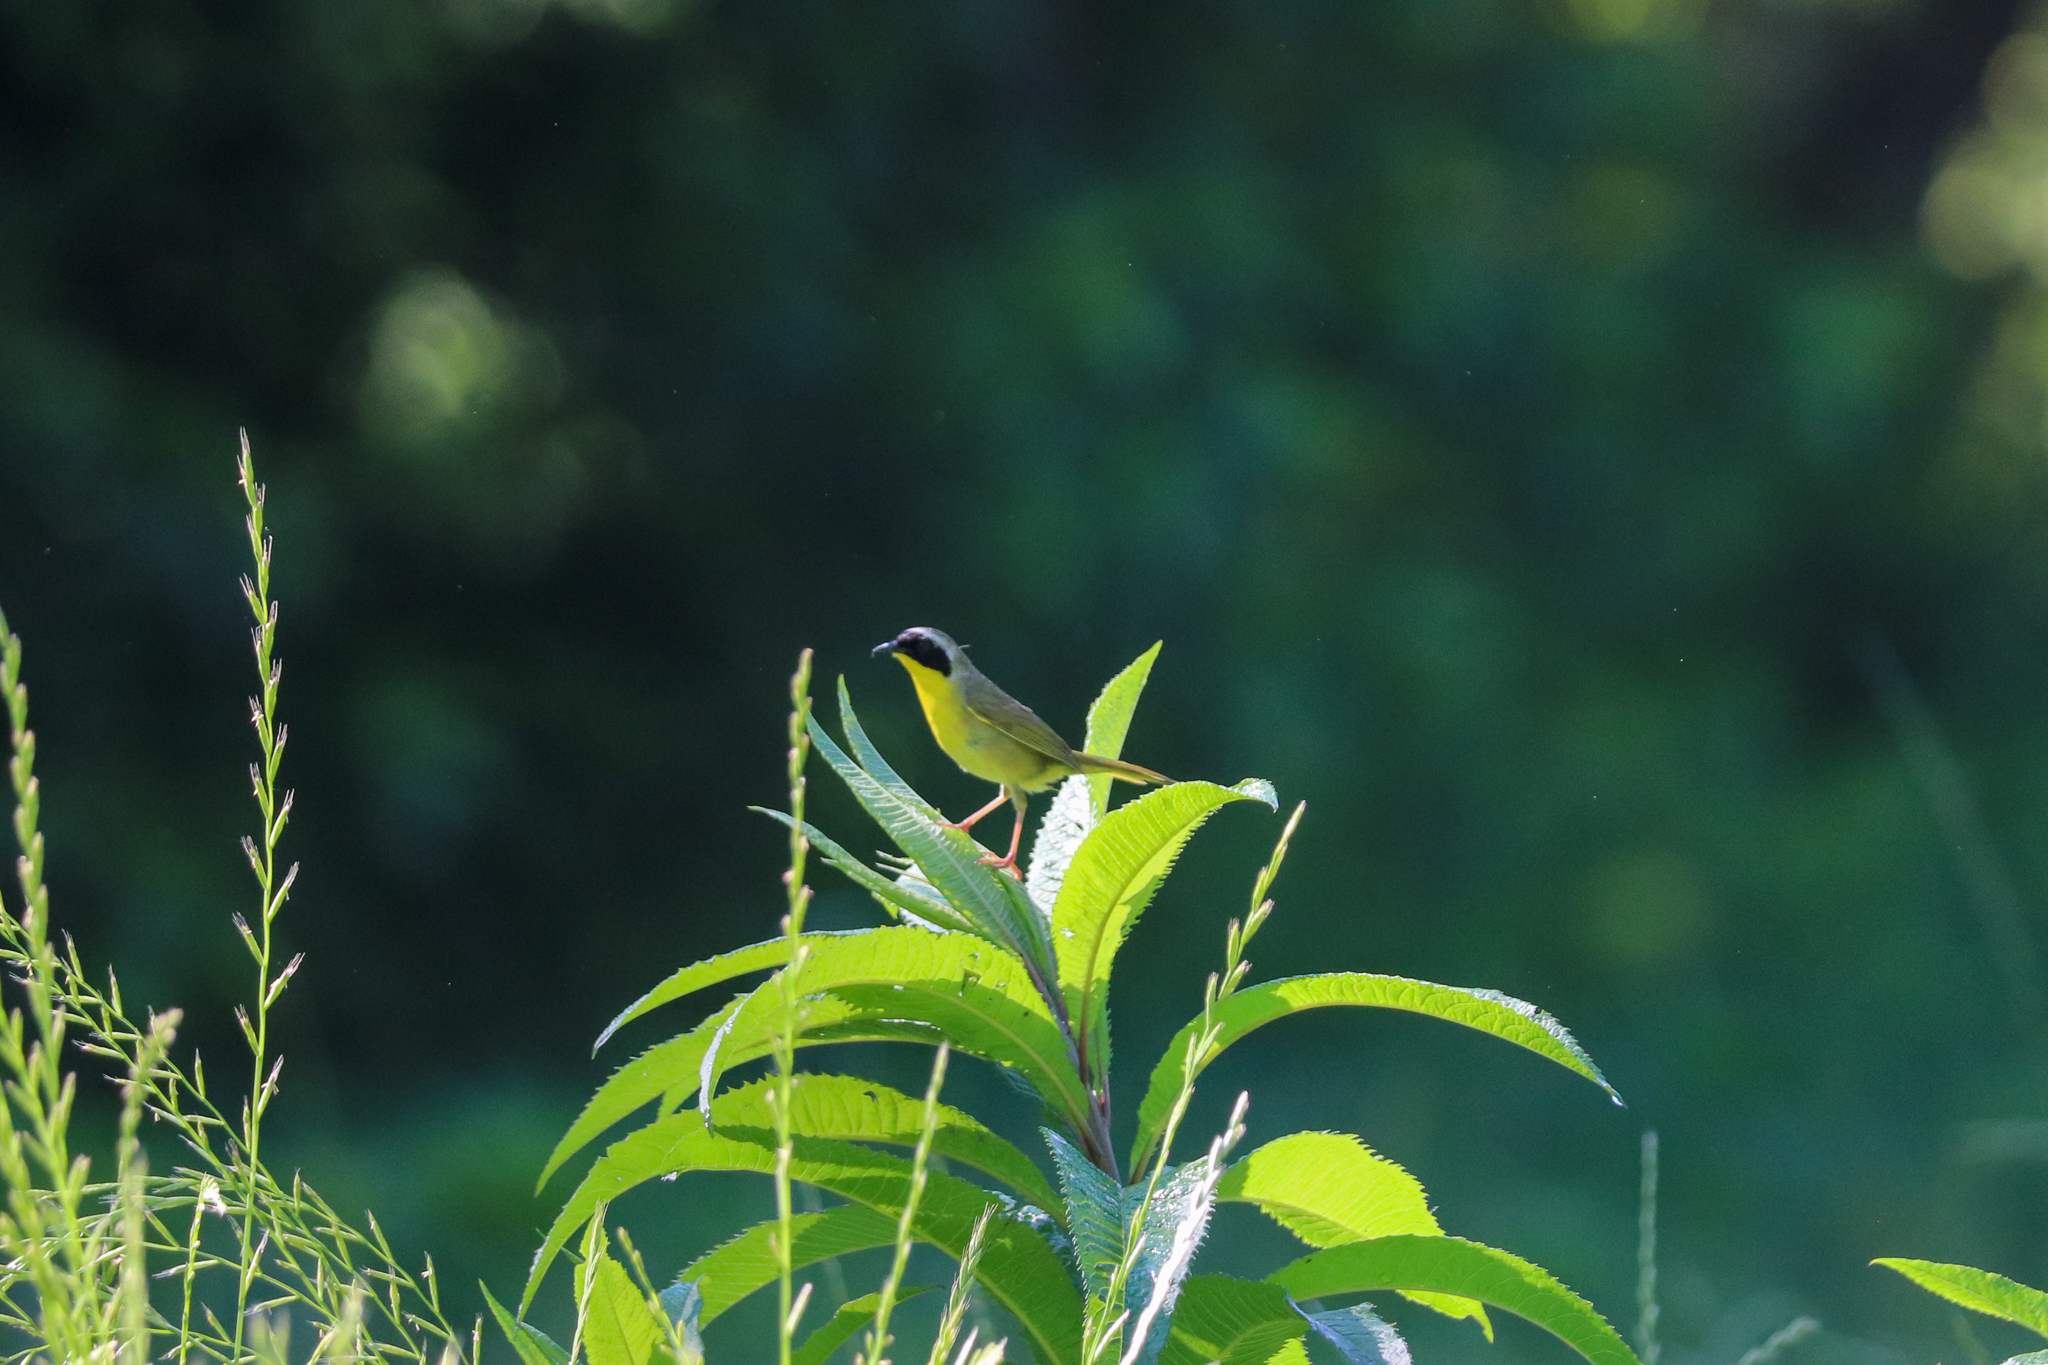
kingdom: Animalia
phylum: Chordata
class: Aves
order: Passeriformes
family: Parulidae
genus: Geothlypis
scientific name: Geothlypis trichas
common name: Common yellowthroat
